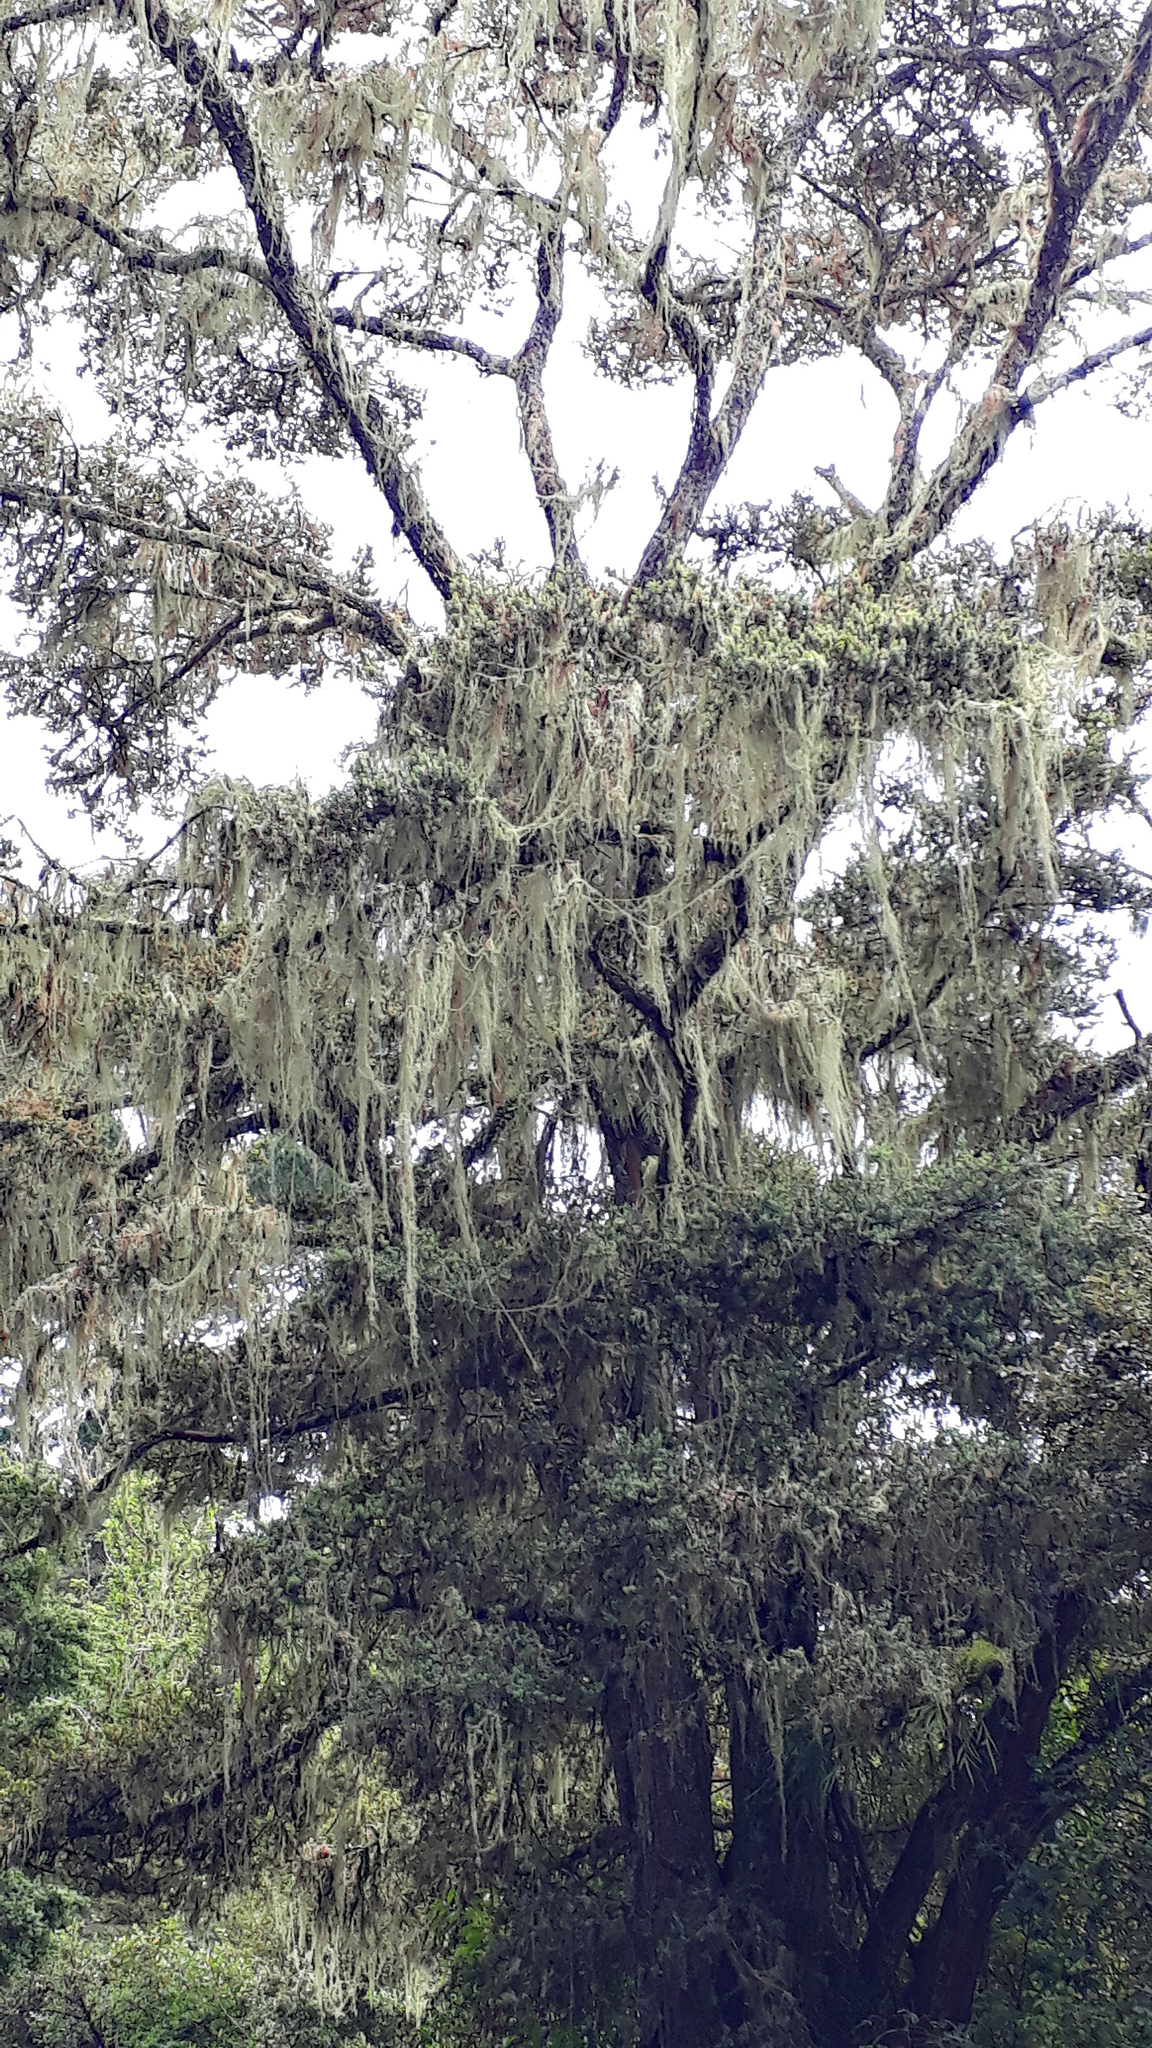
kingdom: Plantae
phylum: Tracheophyta
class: Pinopsida
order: Pinales
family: Podocarpaceae
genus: Podocarpus
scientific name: Podocarpus totara
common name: Totara
